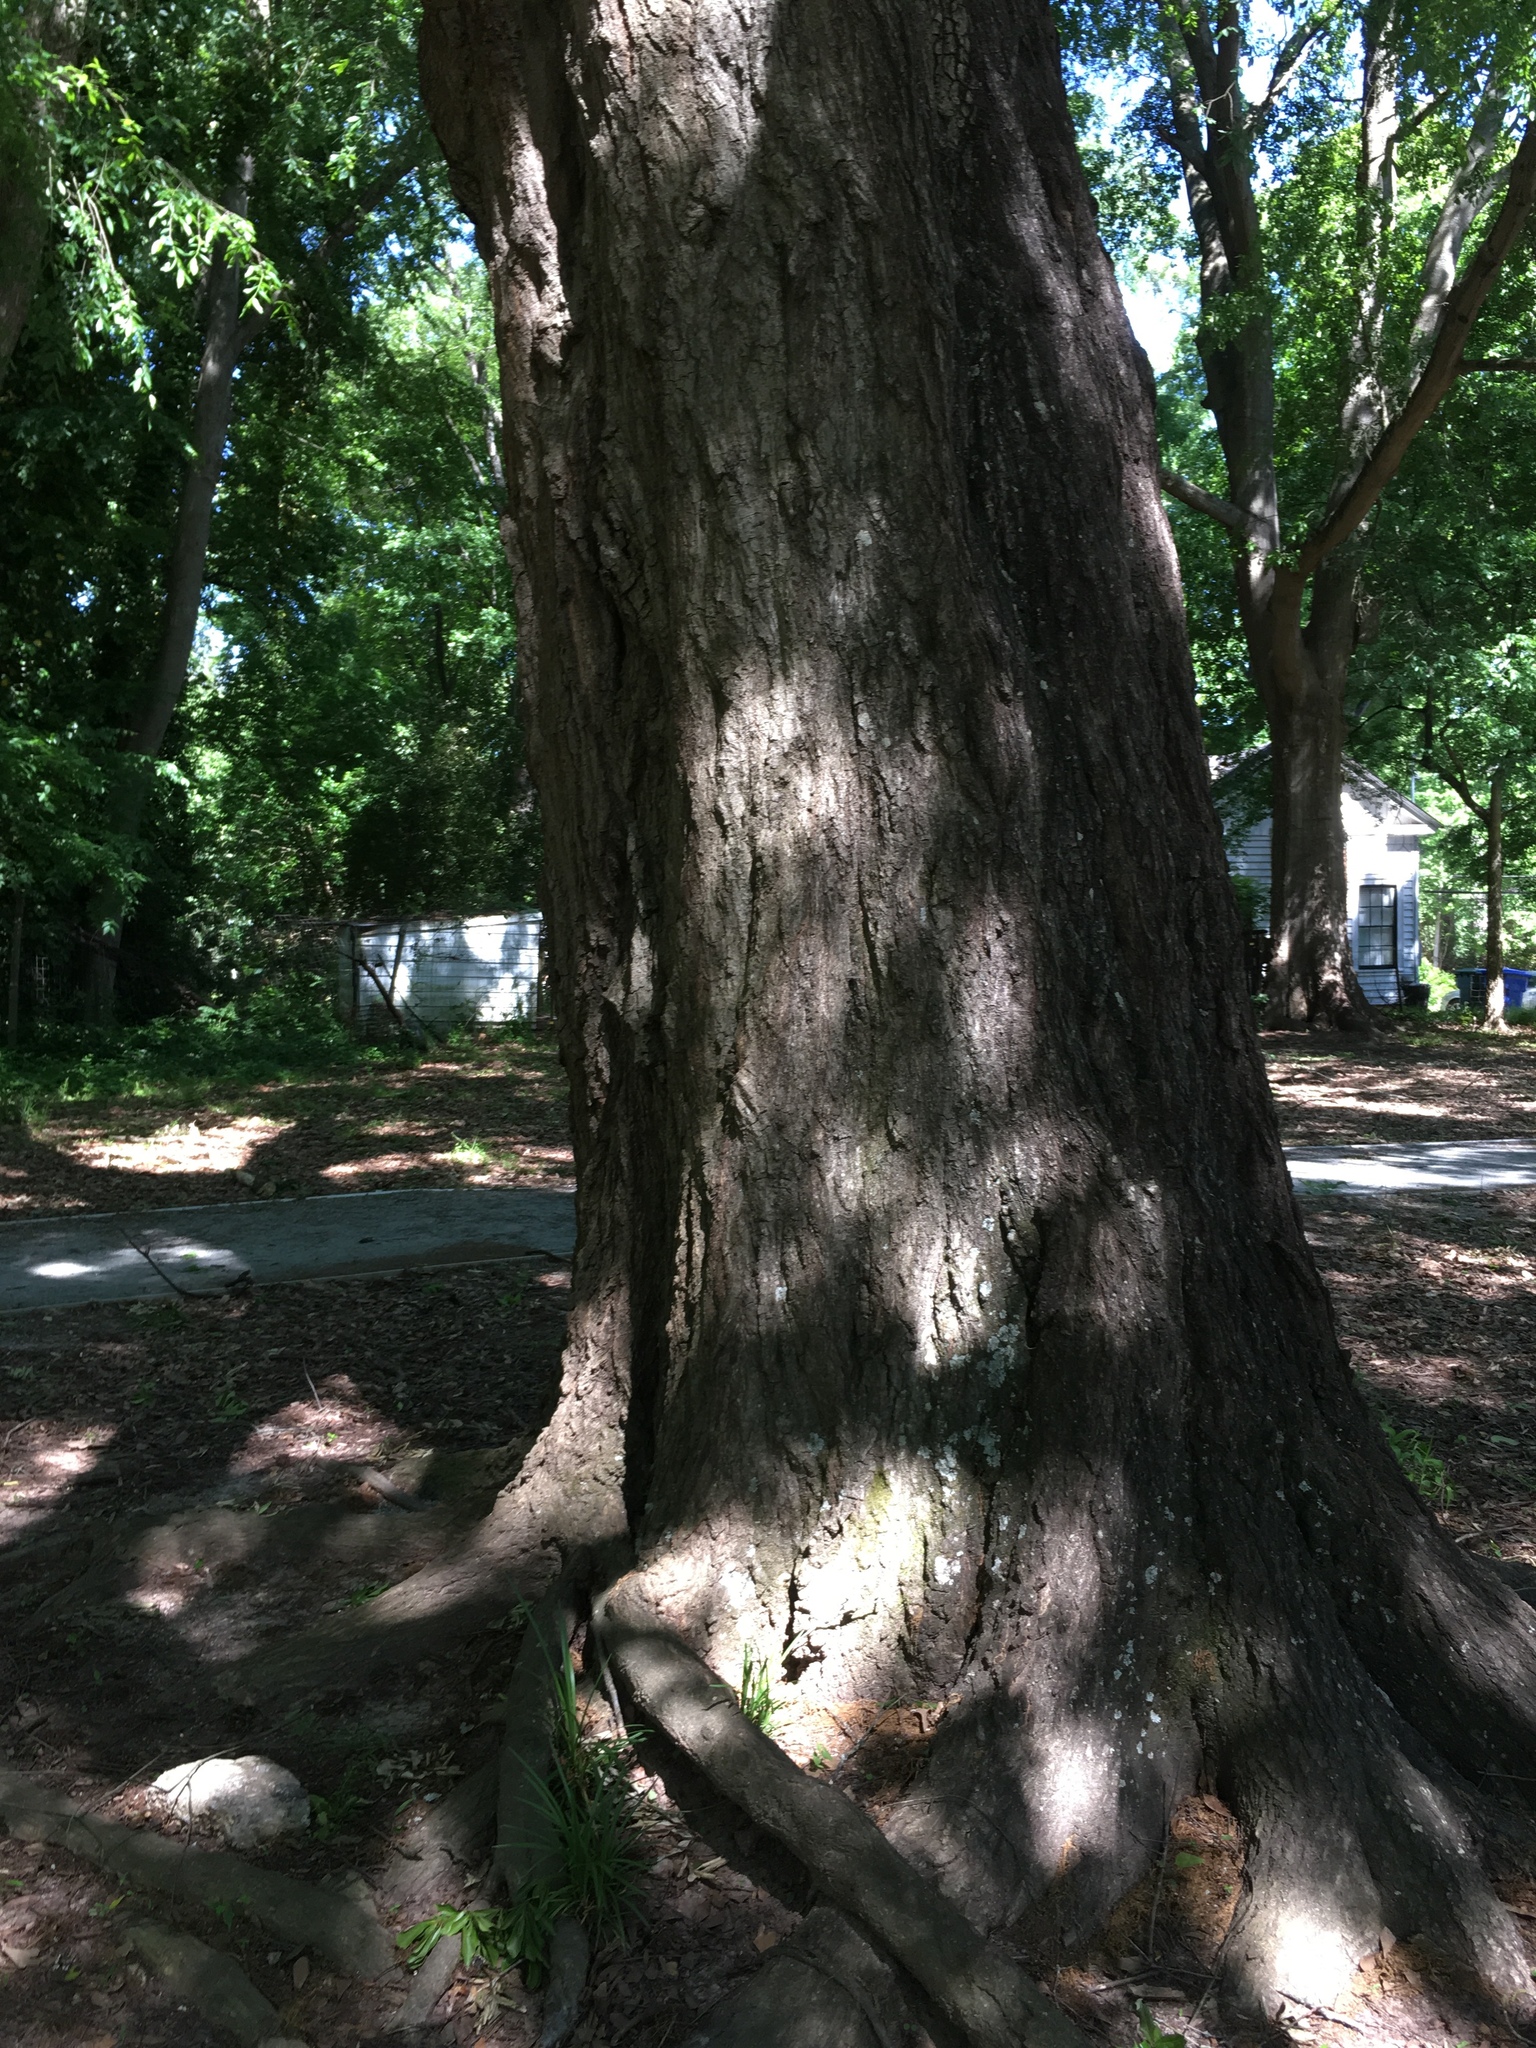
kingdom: Plantae
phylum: Tracheophyta
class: Magnoliopsida
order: Fagales
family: Fagaceae
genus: Quercus
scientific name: Quercus nigra
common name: Water oak
